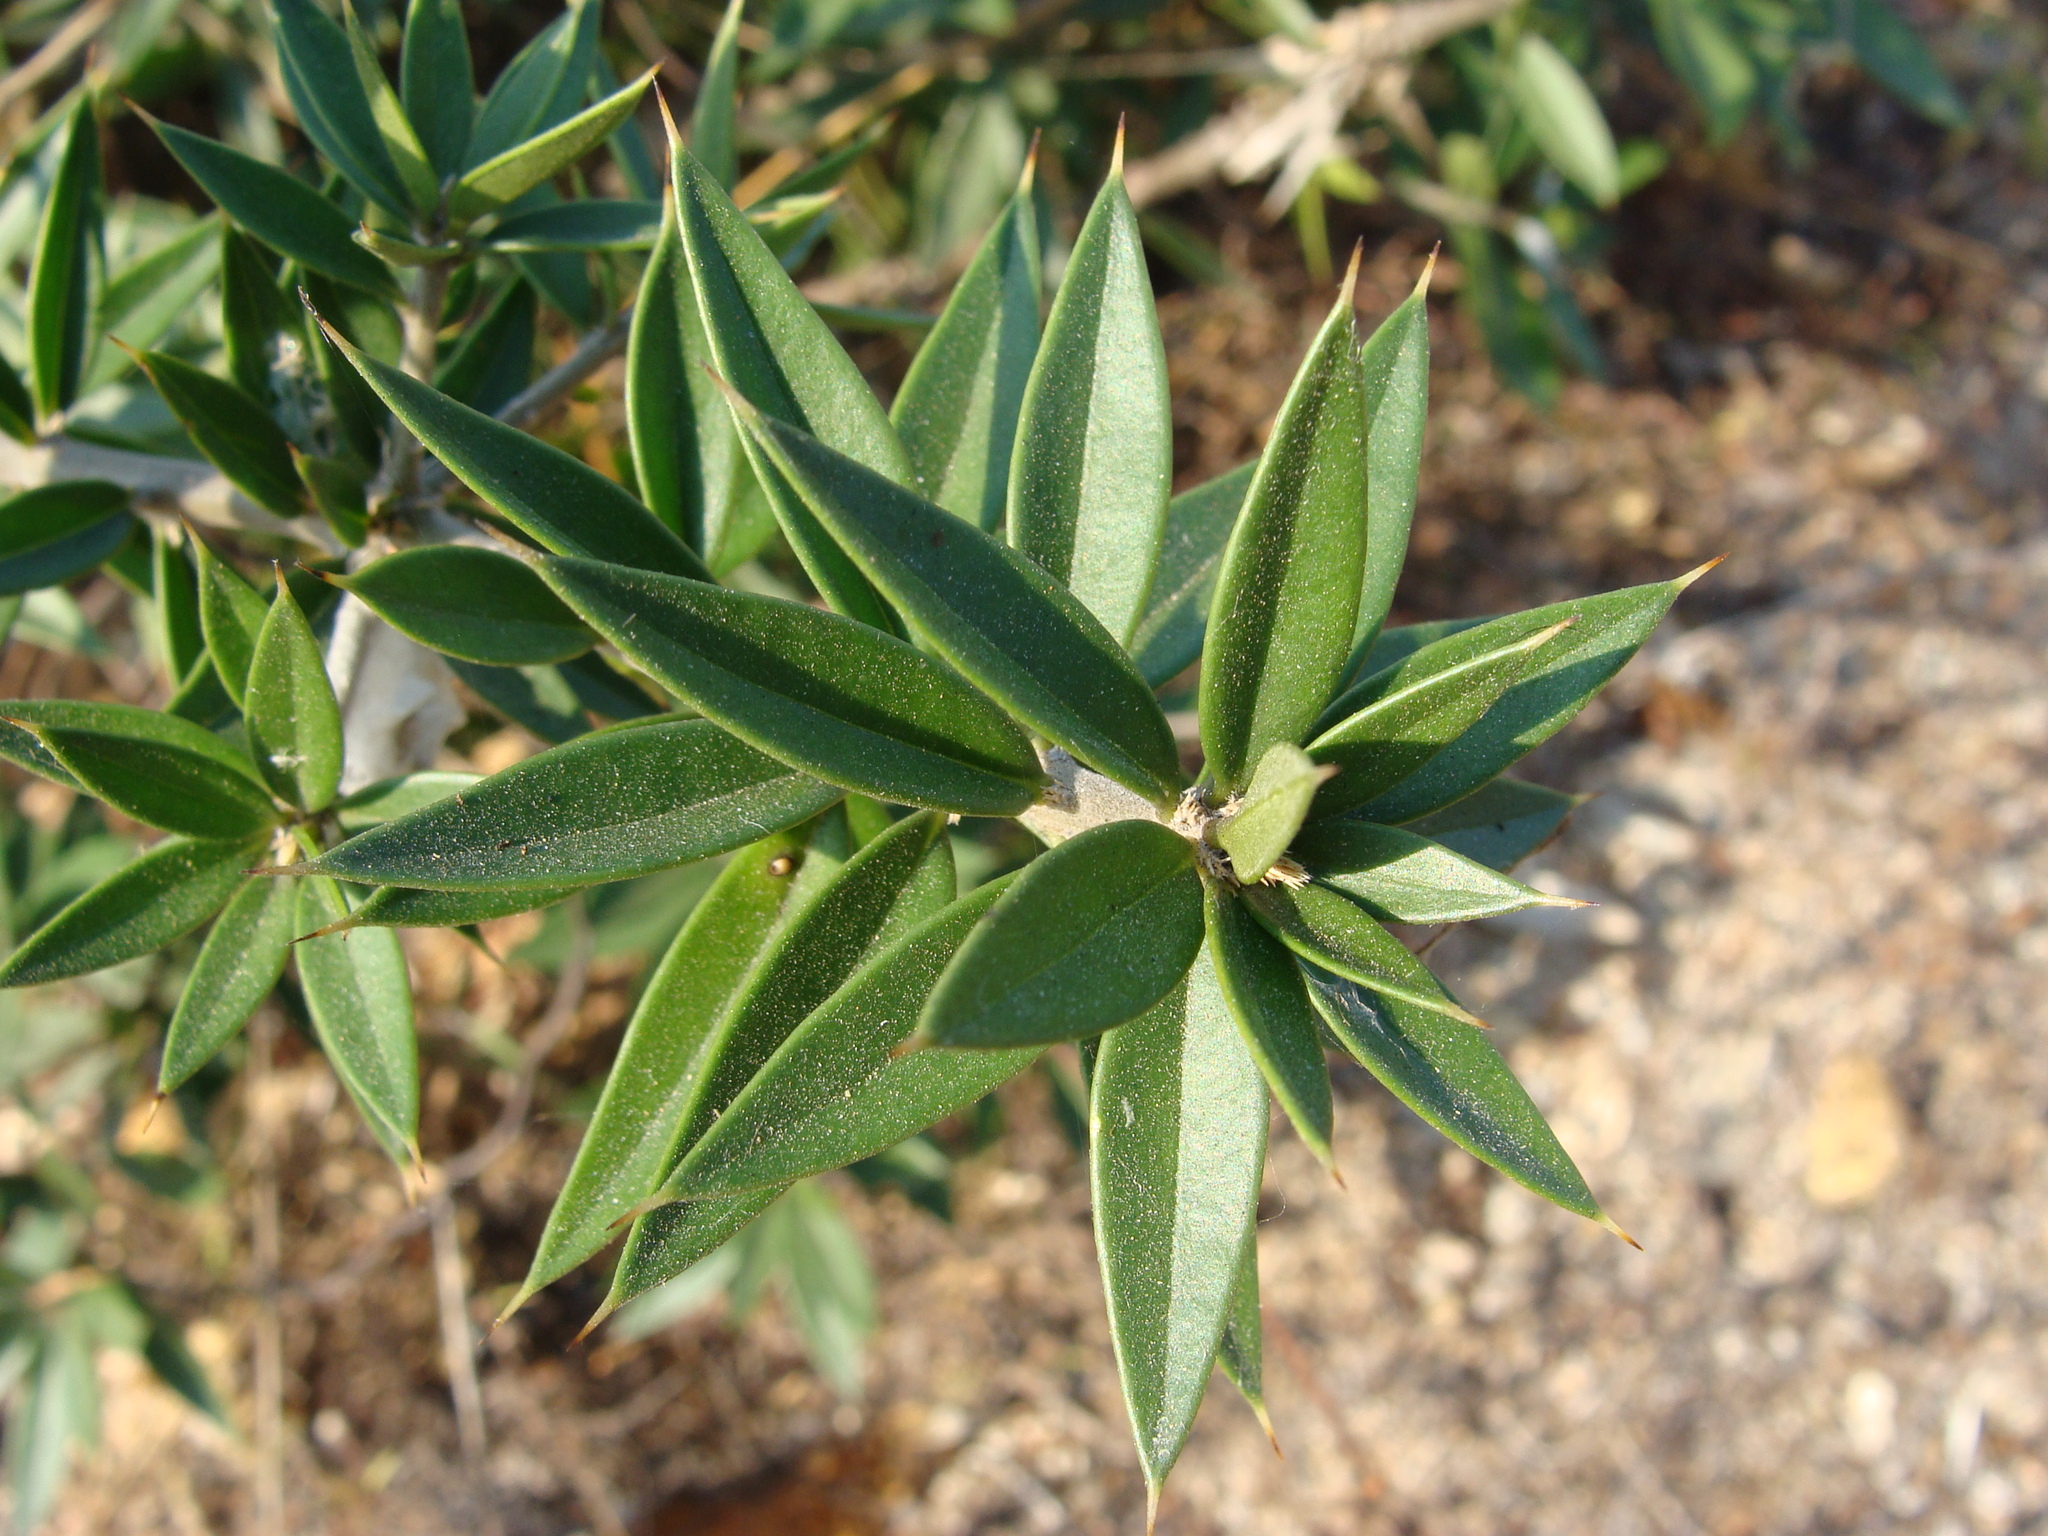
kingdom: Plantae
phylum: Tracheophyta
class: Magnoliopsida
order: Ericales
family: Primulaceae
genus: Bonellia
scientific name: Bonellia macrocarpa
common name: Primrose
